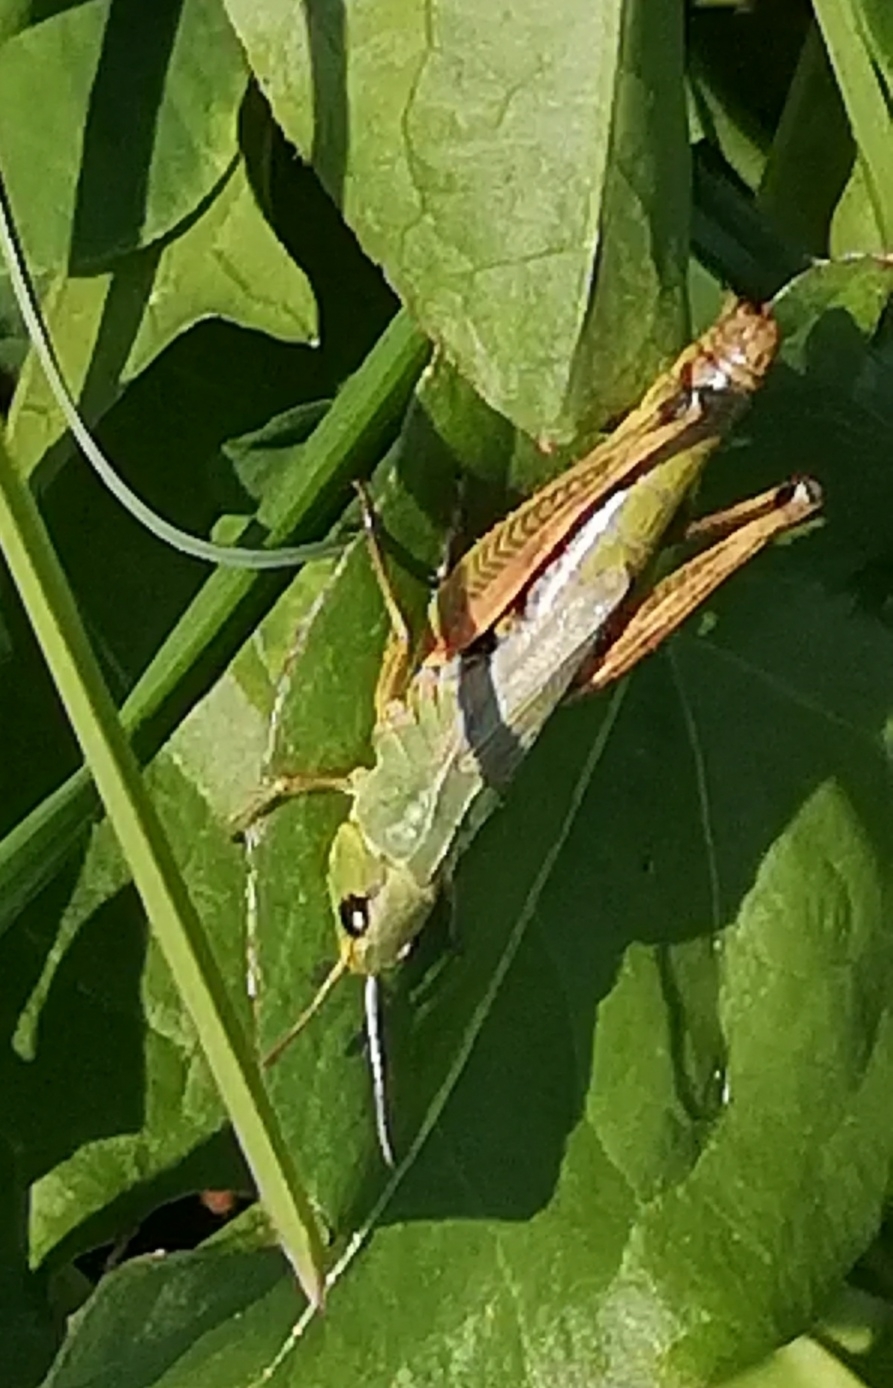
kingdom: Animalia
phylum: Arthropoda
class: Insecta
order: Orthoptera
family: Acrididae
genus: Pseudochorthippus
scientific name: Pseudochorthippus parallelus
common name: Meadow grasshopper
